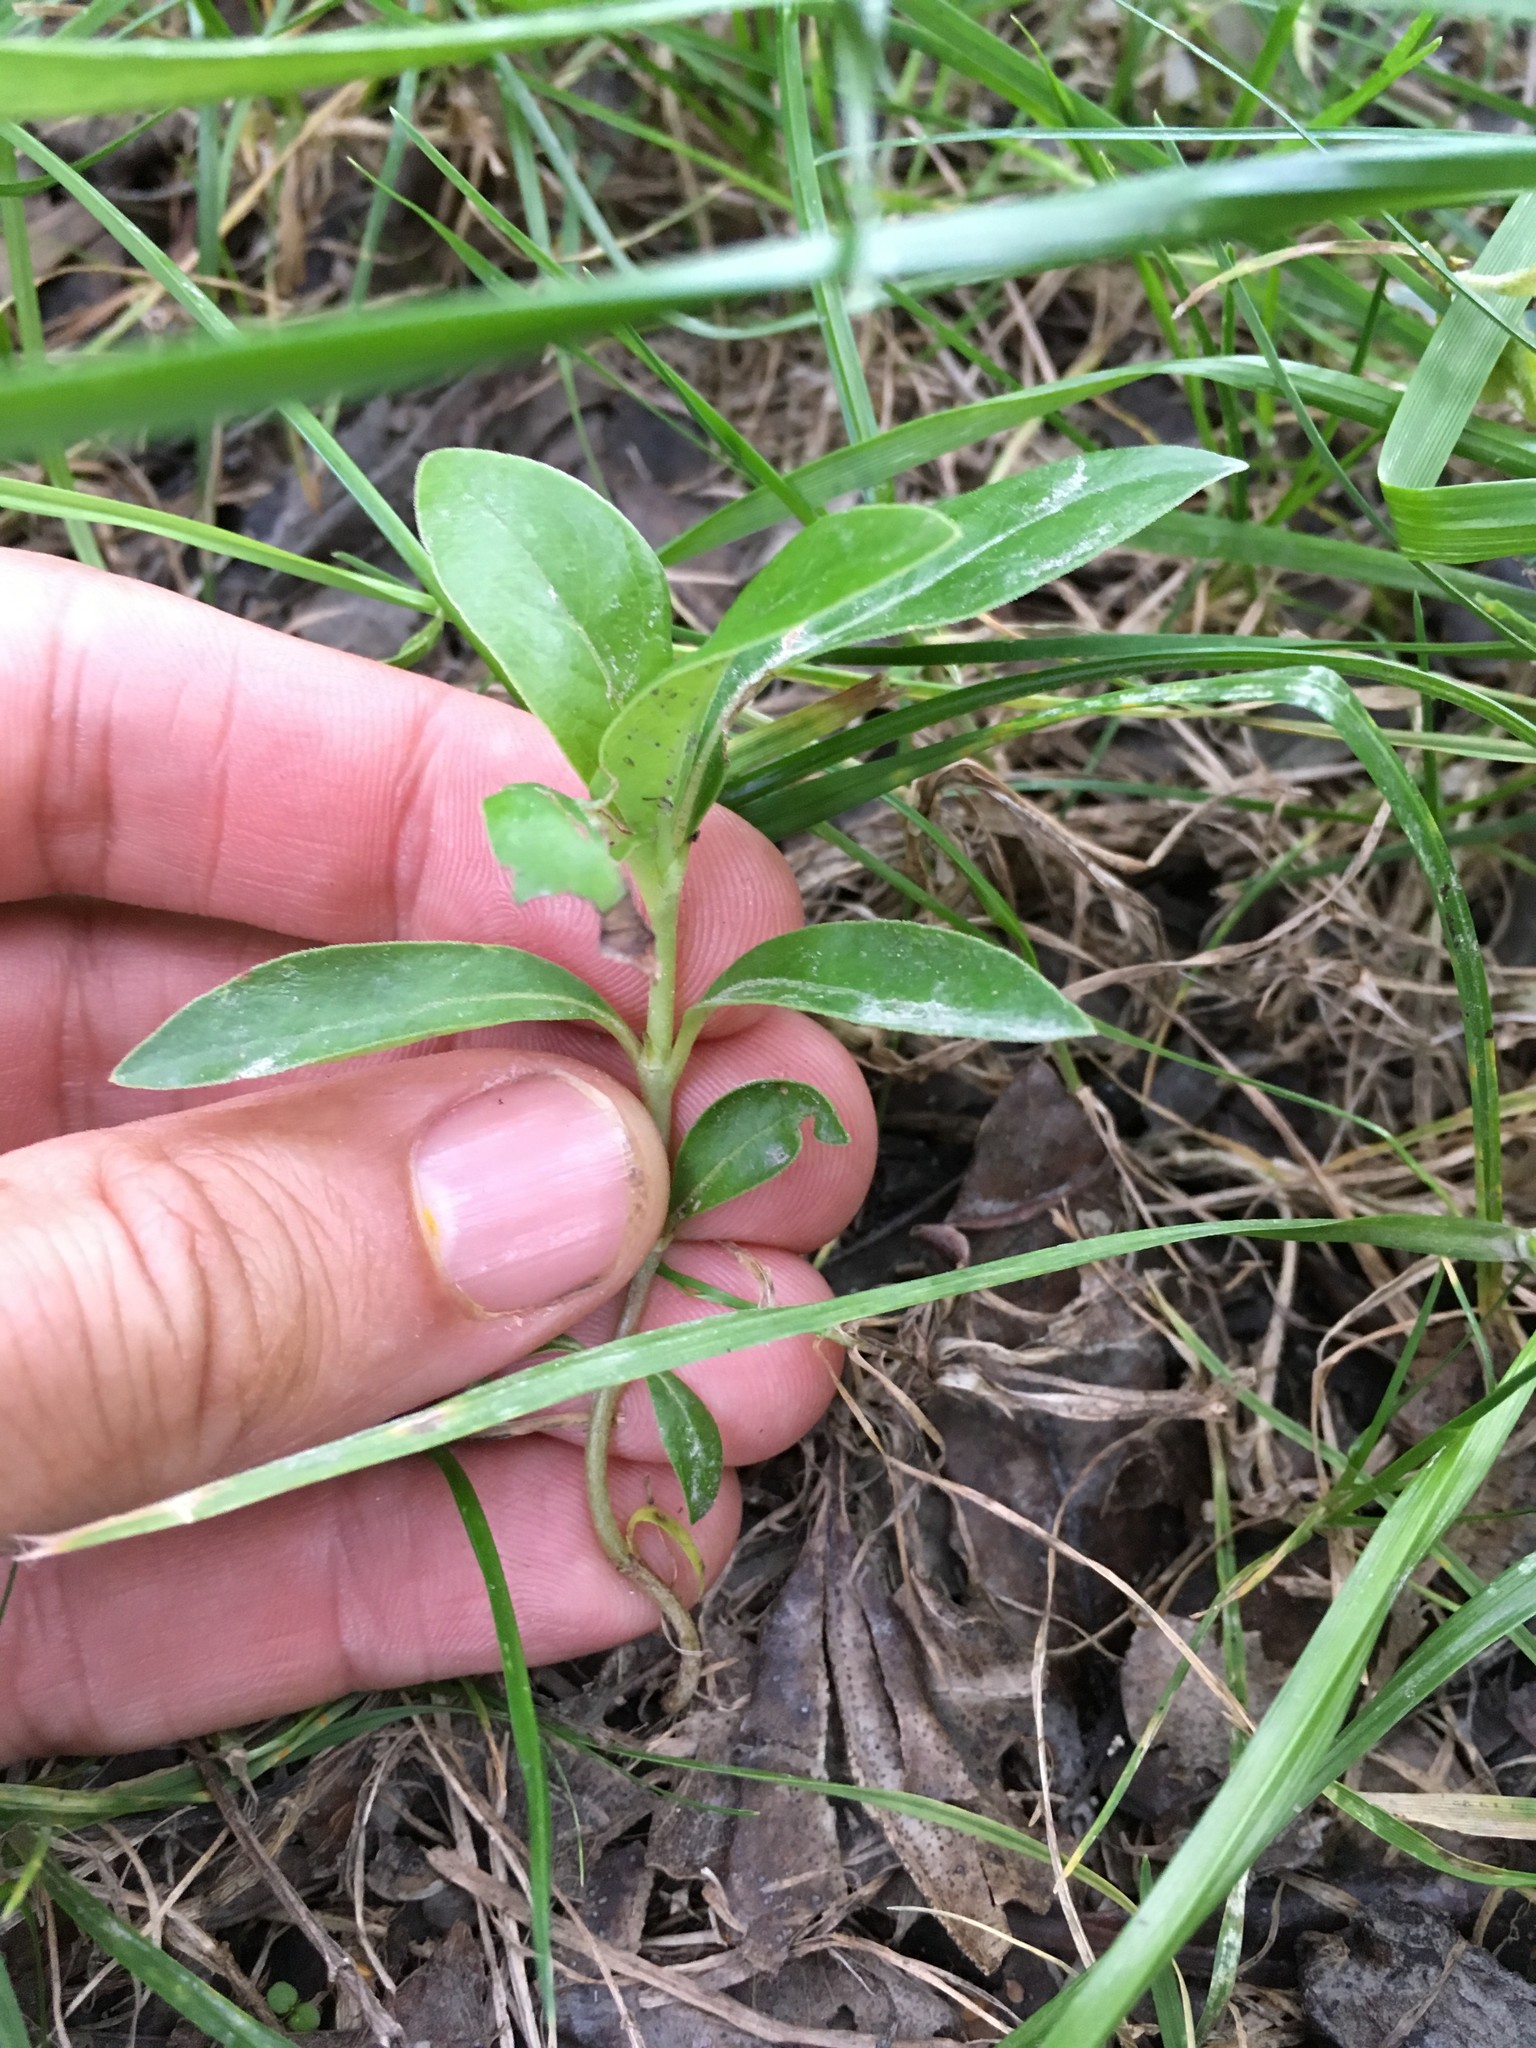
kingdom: Plantae
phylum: Tracheophyta
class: Magnoliopsida
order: Gentianales
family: Rubiaceae
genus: Coprosma
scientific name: Coprosma robusta
